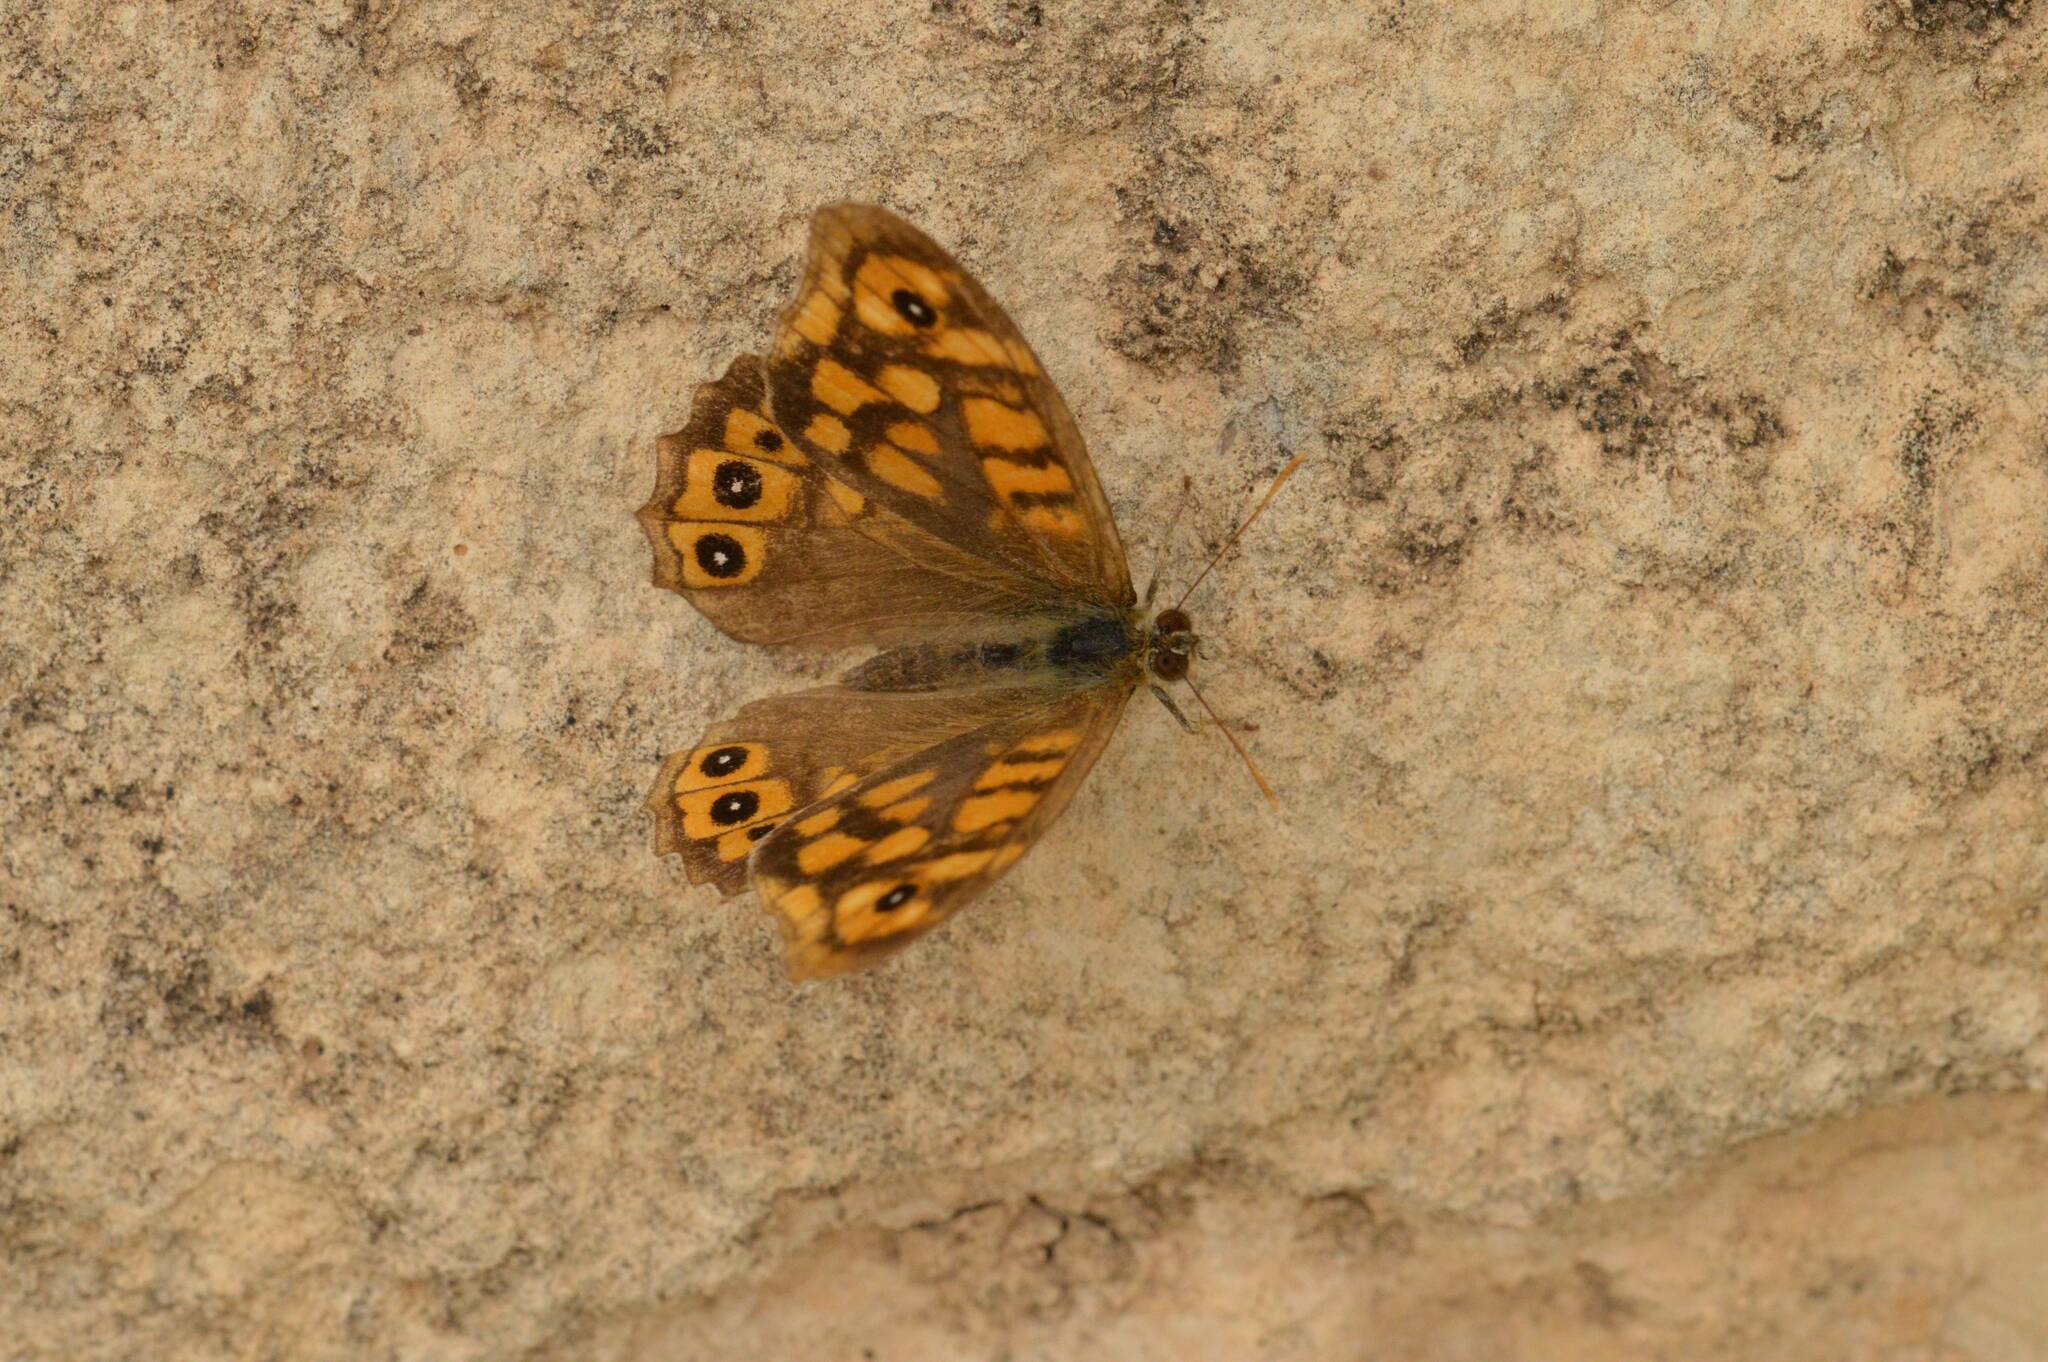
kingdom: Animalia
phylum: Arthropoda
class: Insecta
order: Lepidoptera
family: Nymphalidae
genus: Pararge
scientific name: Pararge aegeria
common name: Speckled wood
